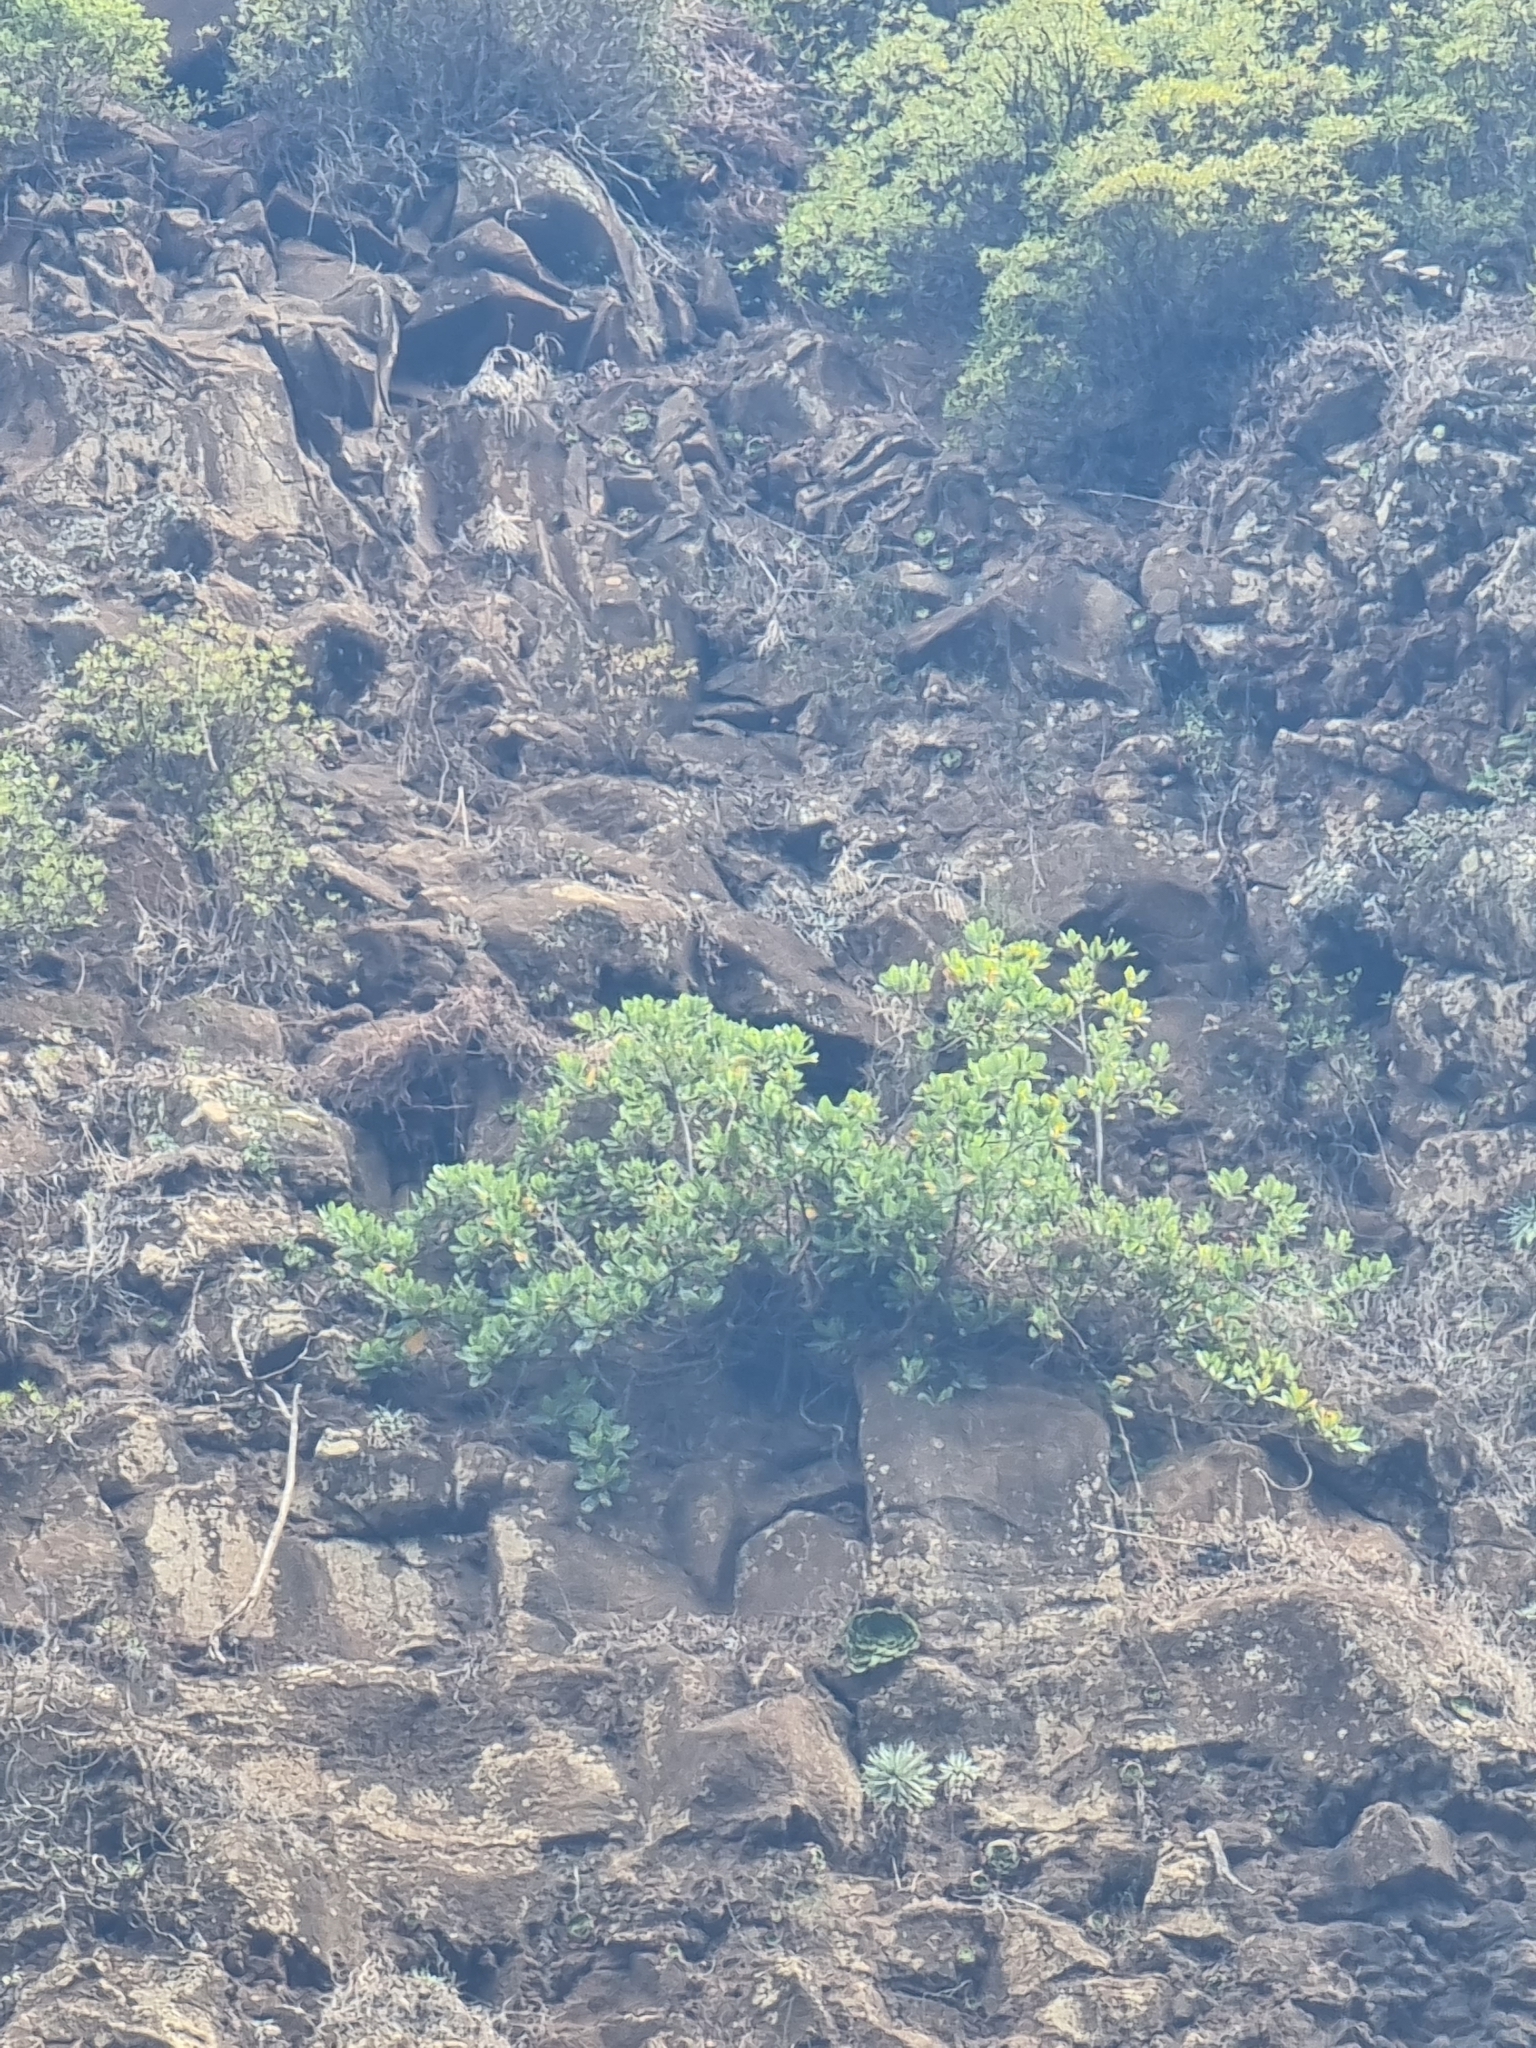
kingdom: Plantae
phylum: Tracheophyta
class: Magnoliopsida
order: Ericales
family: Sapotaceae
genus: Sideroxylon
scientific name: Sideroxylon mirmulans
